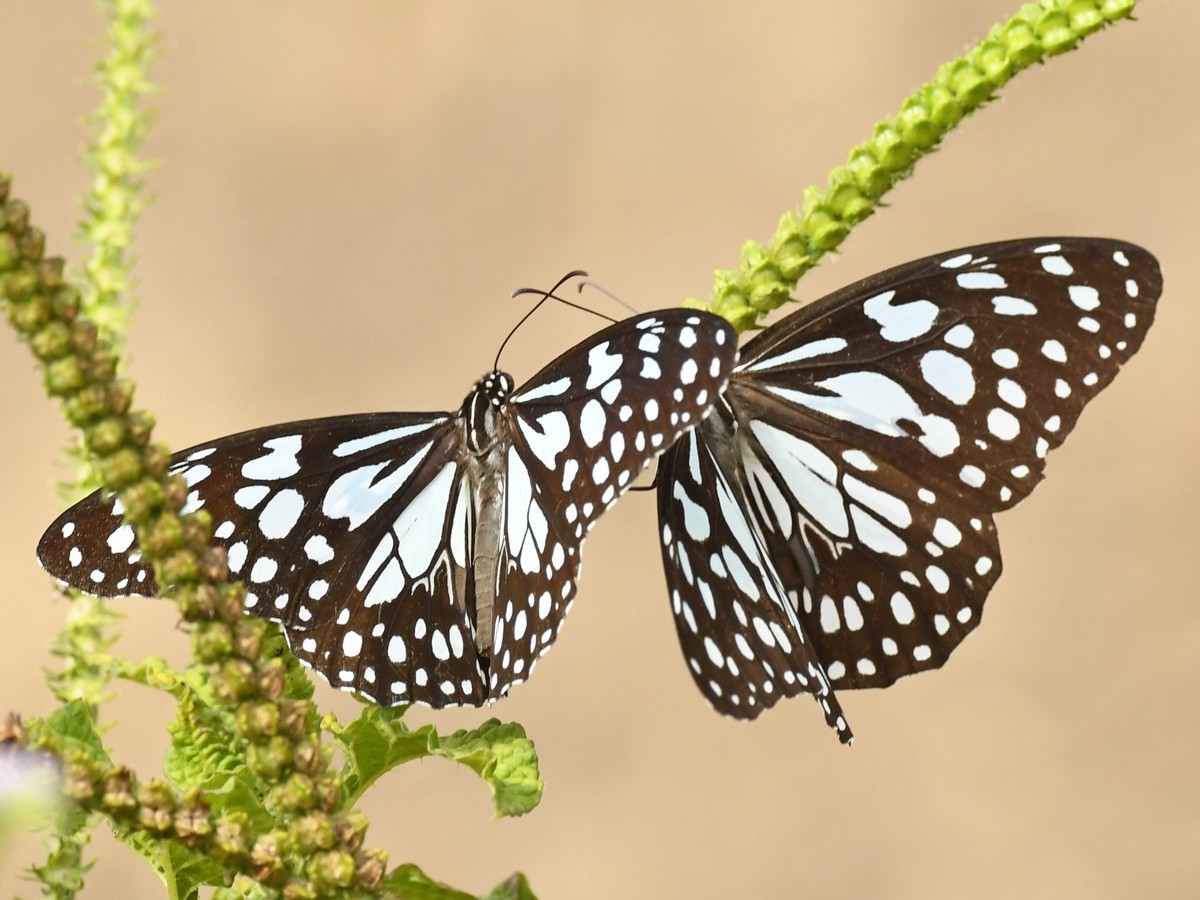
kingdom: Animalia
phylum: Arthropoda
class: Insecta
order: Lepidoptera
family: Nymphalidae
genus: Tirumala
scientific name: Tirumala limniace
